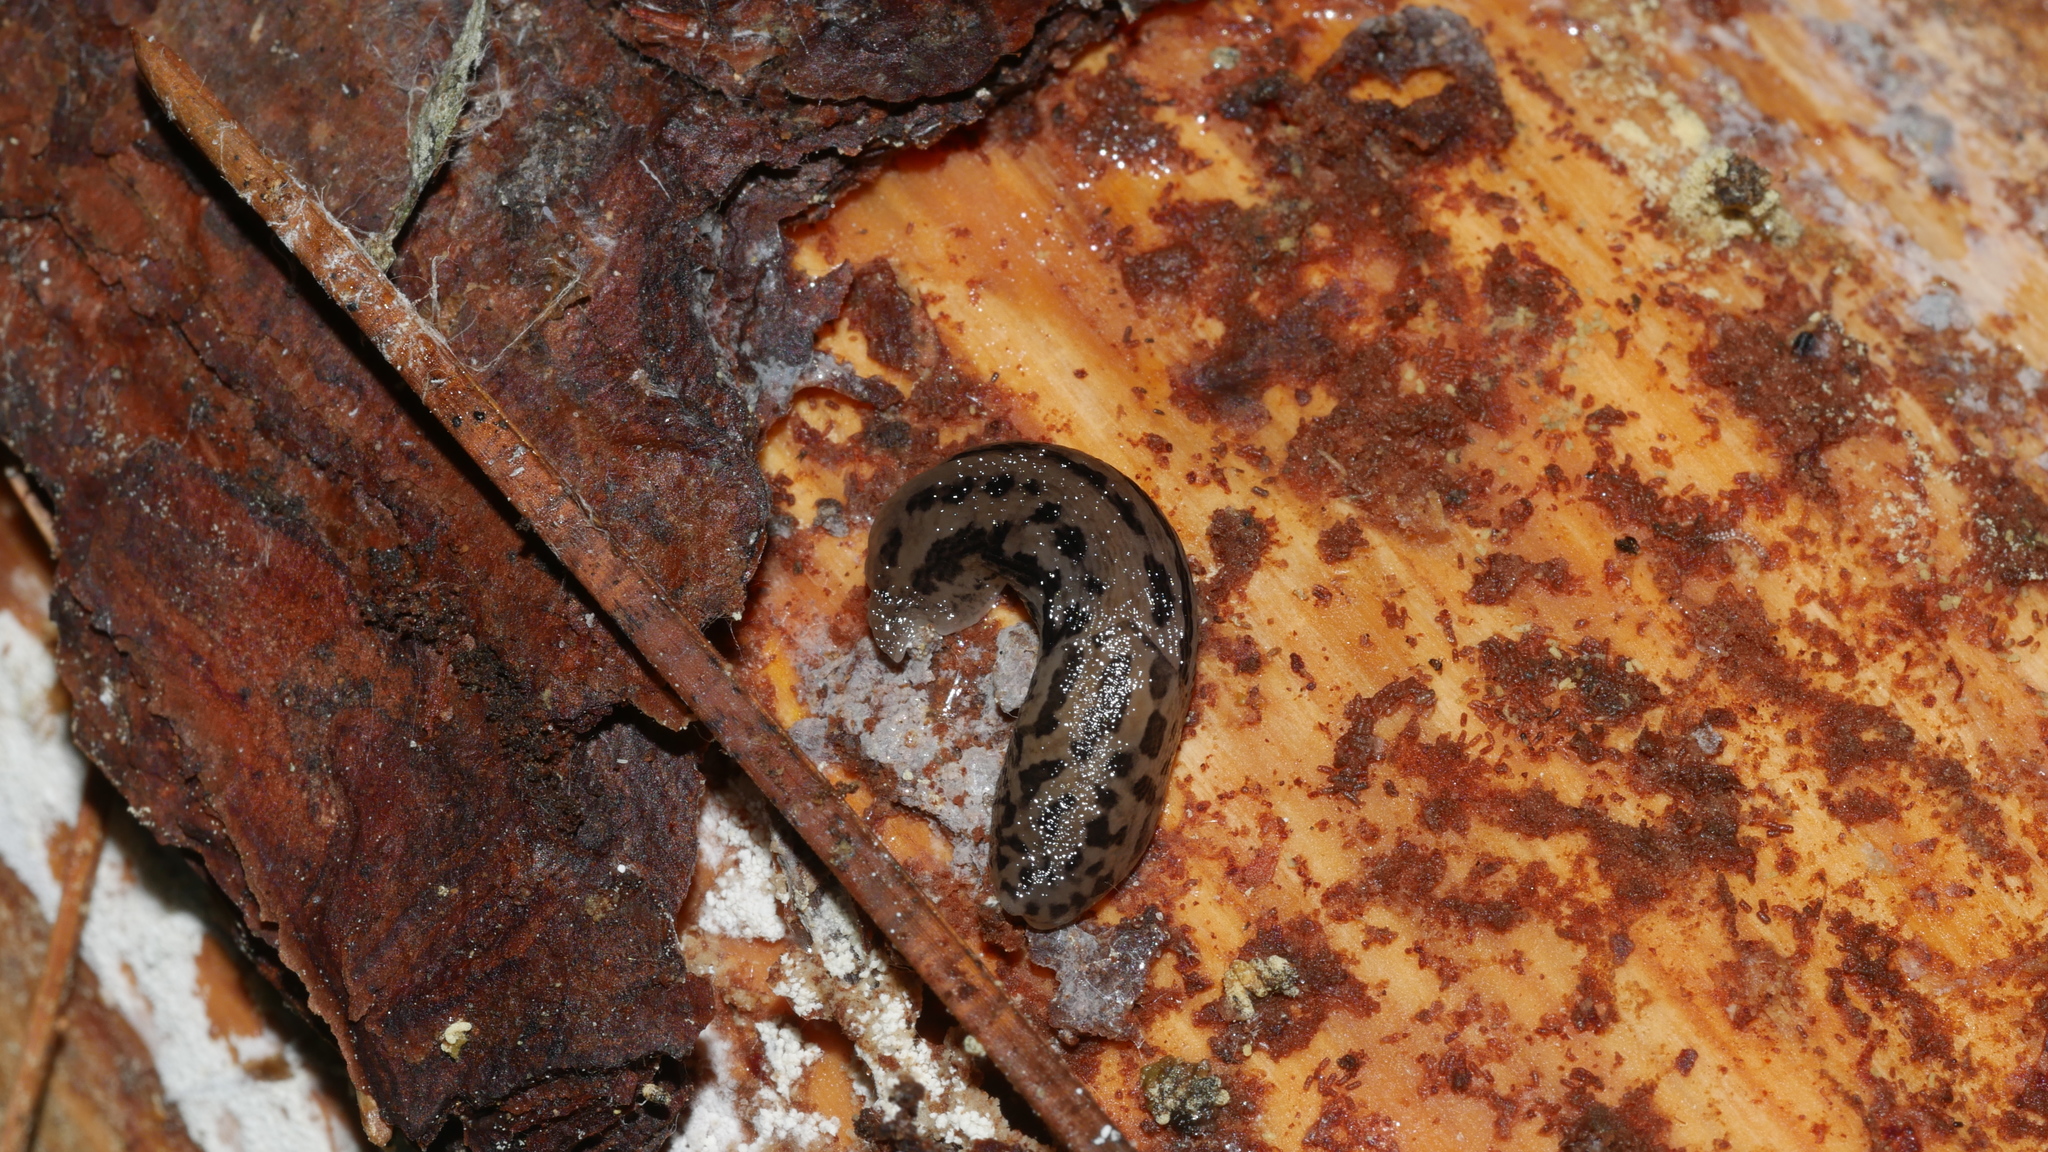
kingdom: Animalia
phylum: Mollusca
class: Gastropoda
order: Stylommatophora
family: Limacidae
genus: Limax
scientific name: Limax maximus
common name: Great grey slug
